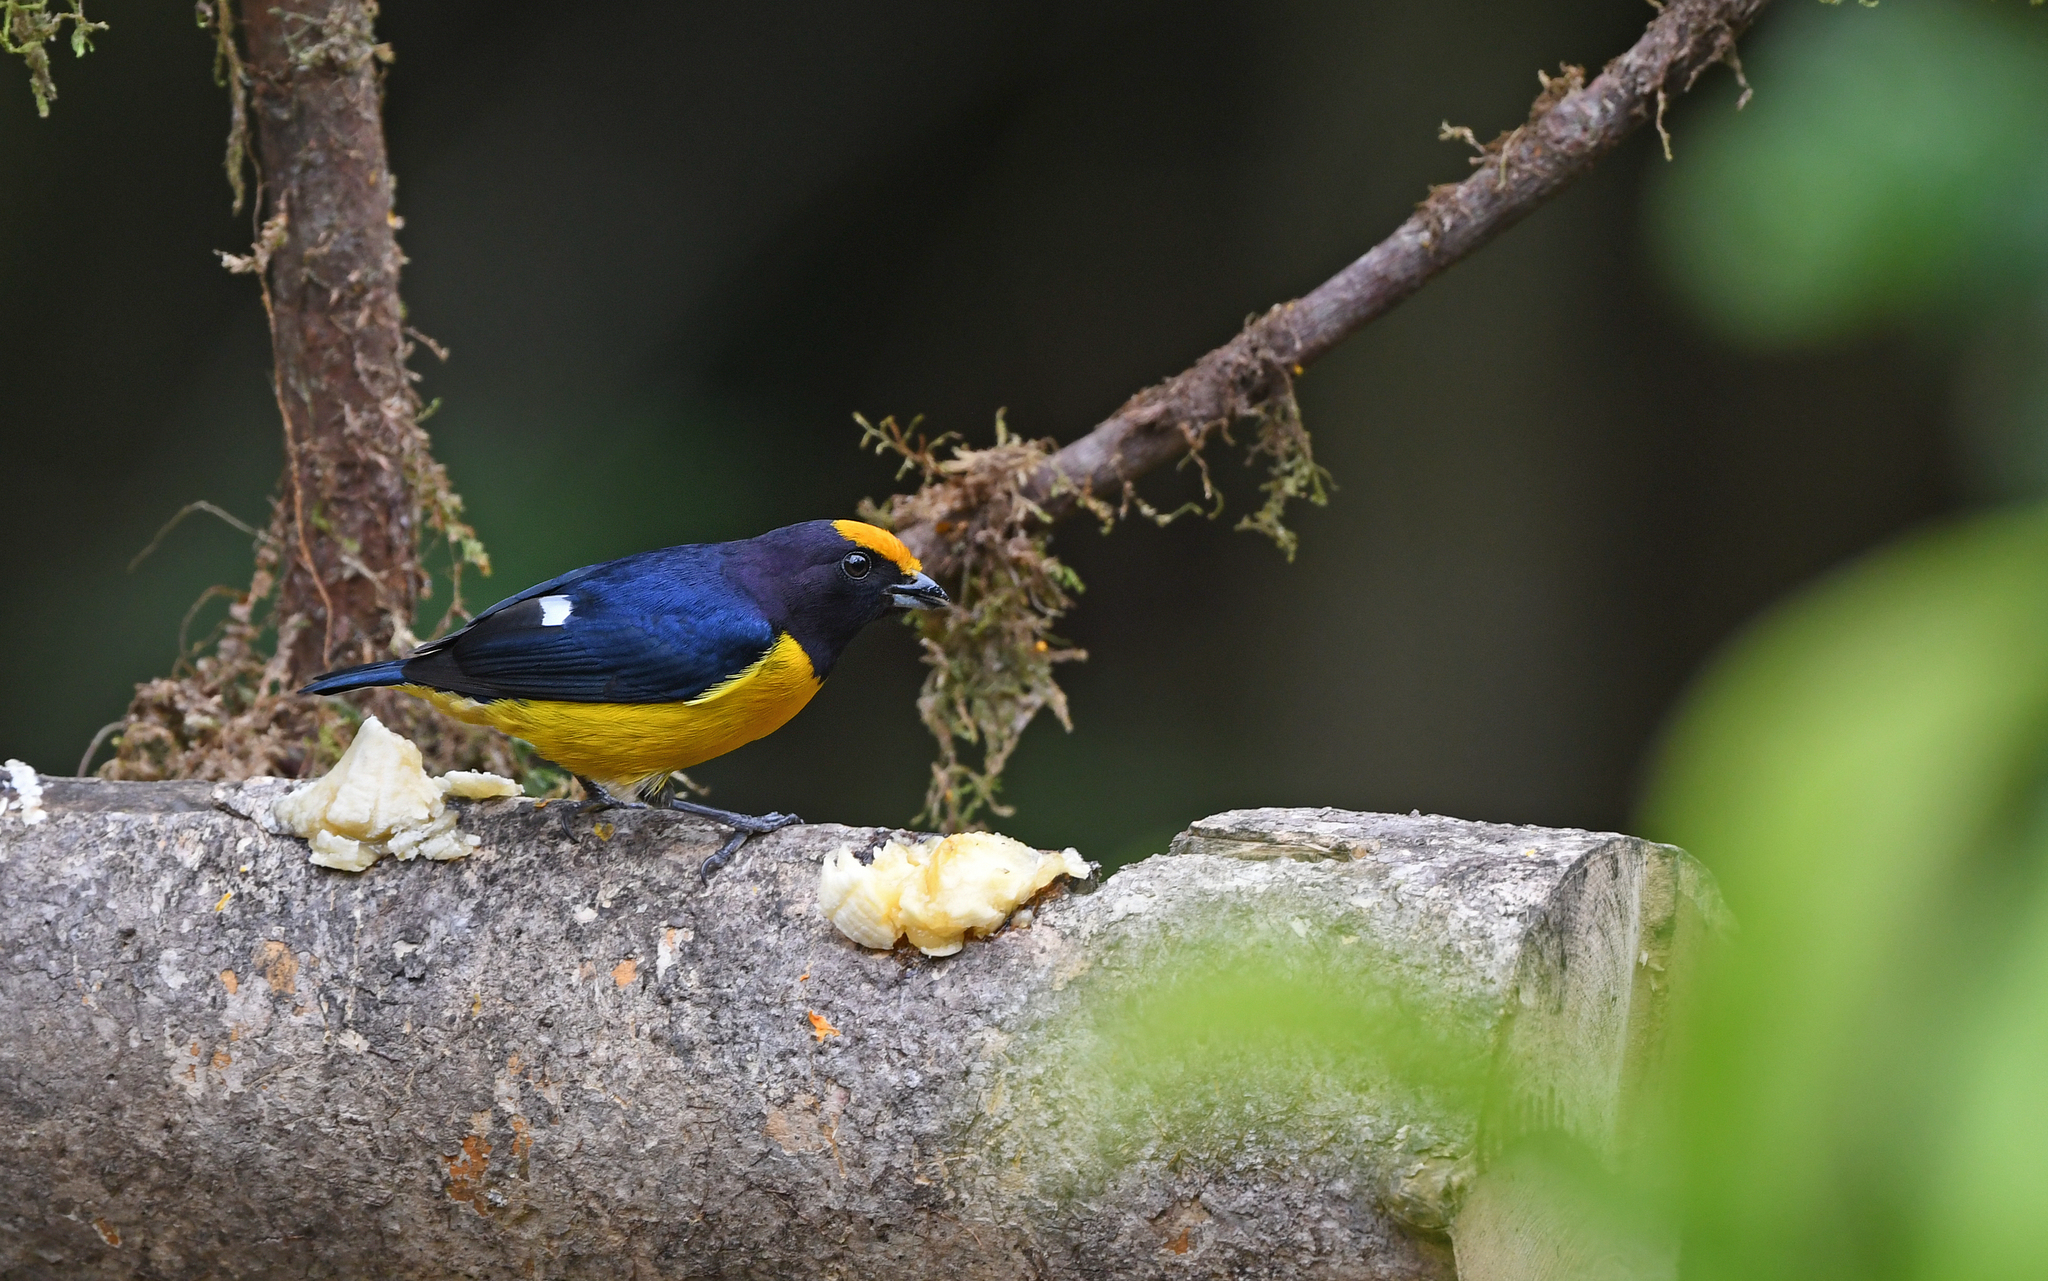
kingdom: Animalia
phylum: Chordata
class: Aves
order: Passeriformes
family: Fringillidae
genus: Euphonia
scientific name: Euphonia xanthogaster
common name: Orange-bellied euphonia
